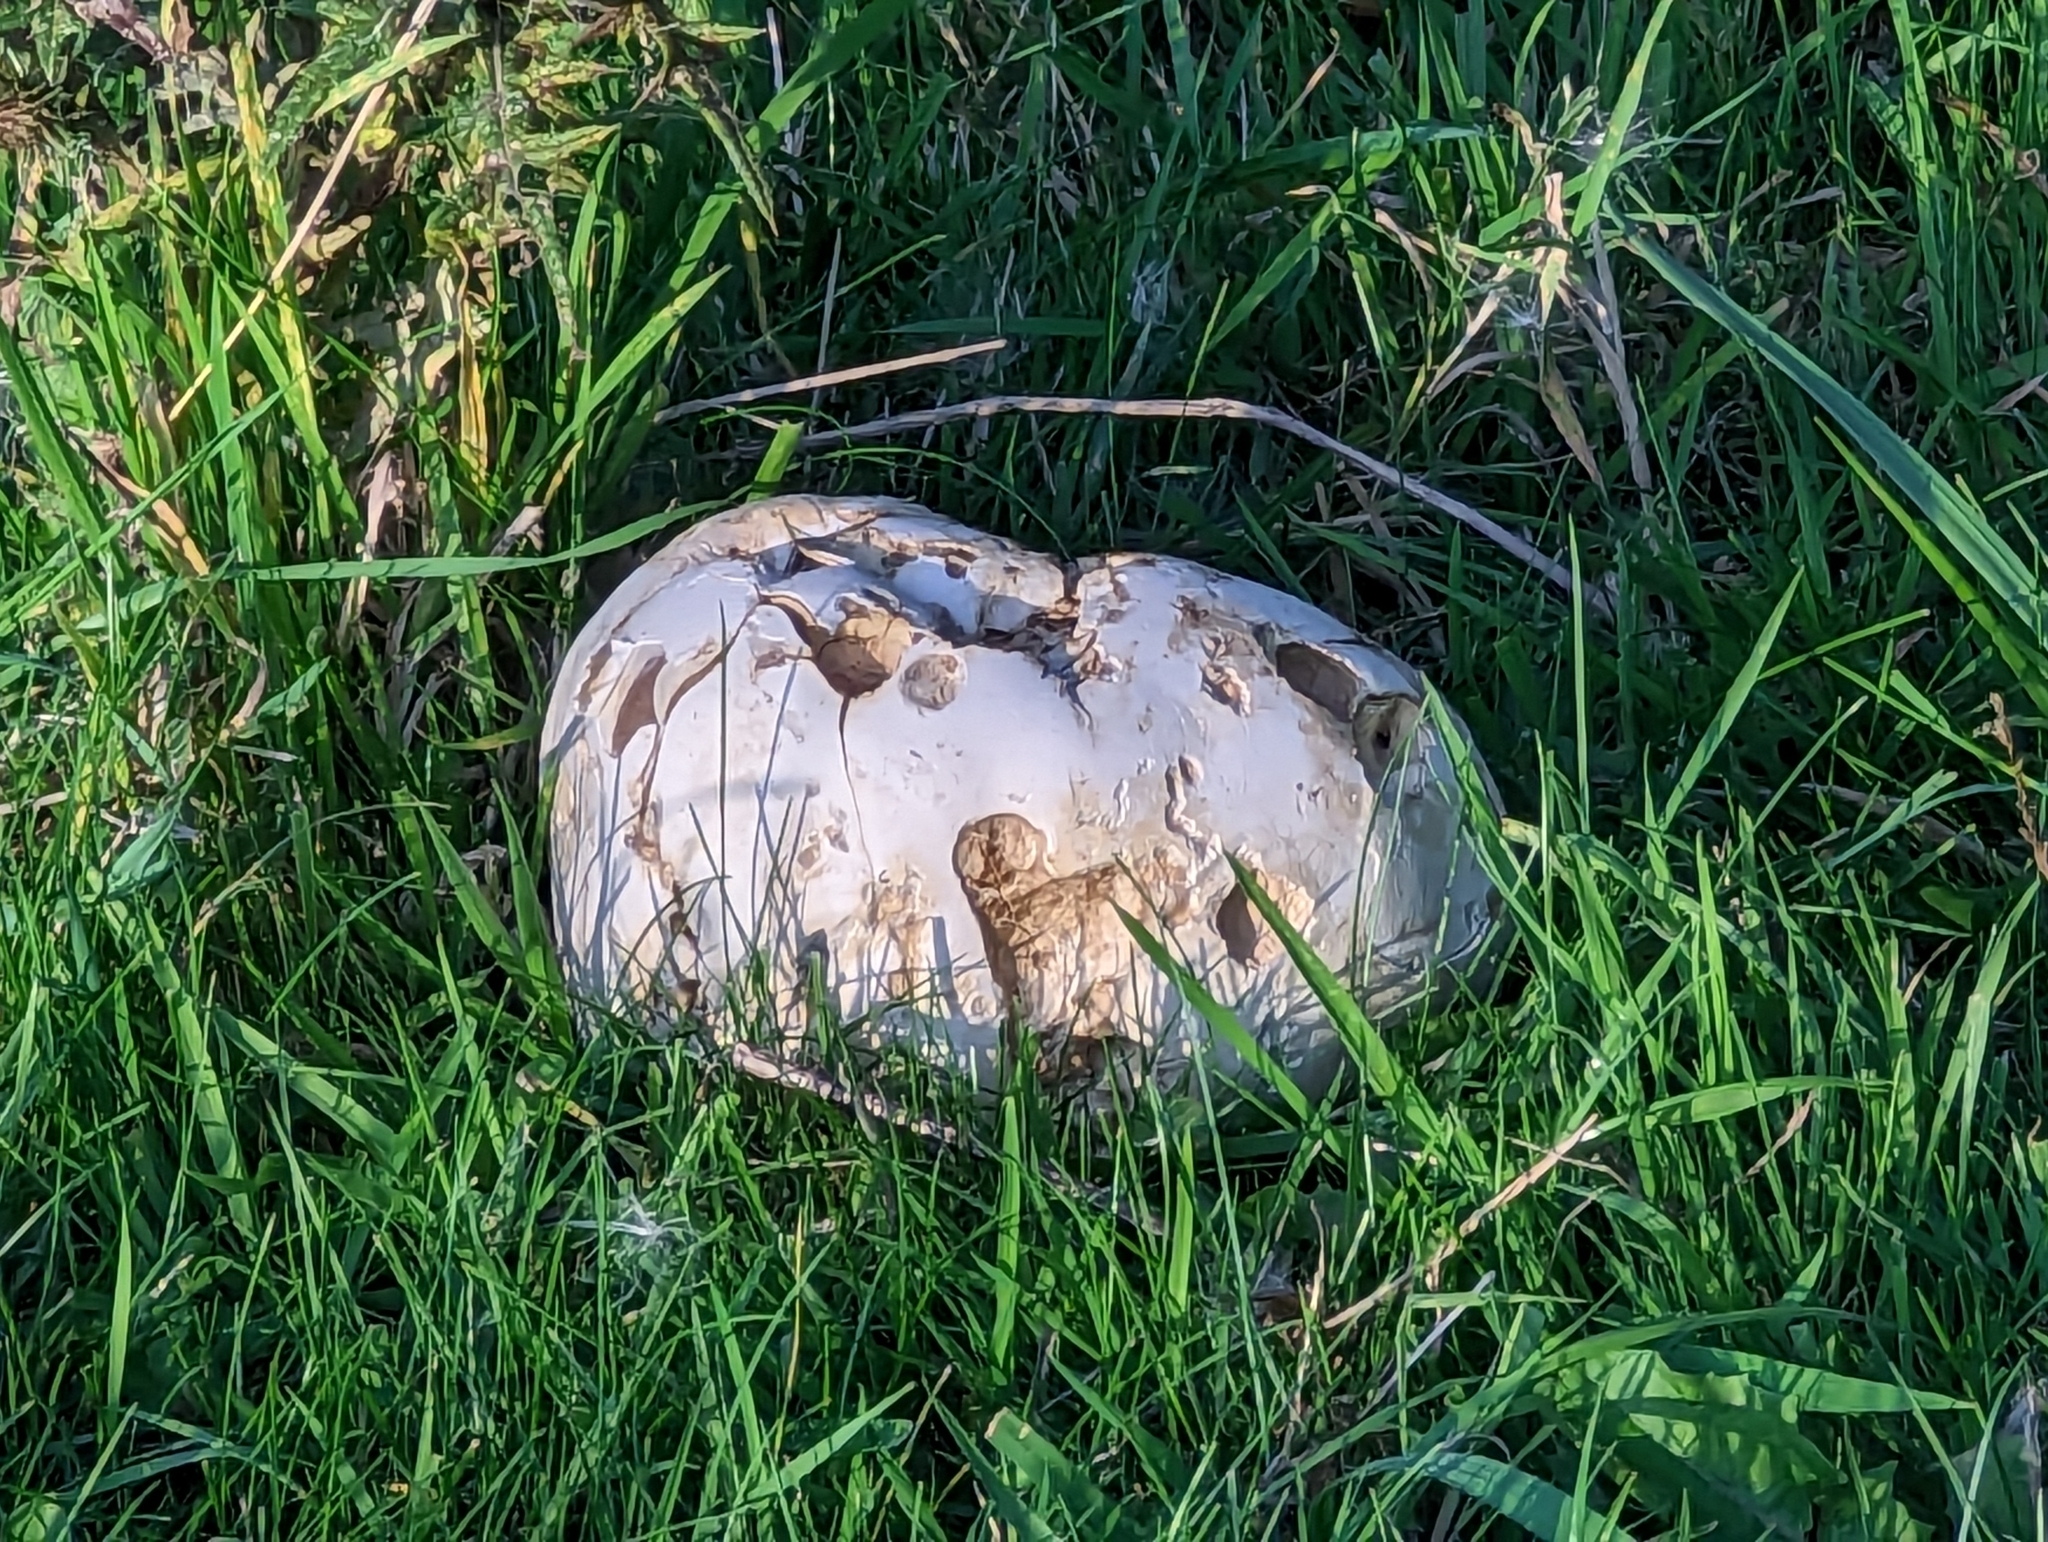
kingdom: Fungi
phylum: Basidiomycota
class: Agaricomycetes
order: Agaricales
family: Lycoperdaceae
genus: Calvatia
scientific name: Calvatia gigantea
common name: Giant puffball
